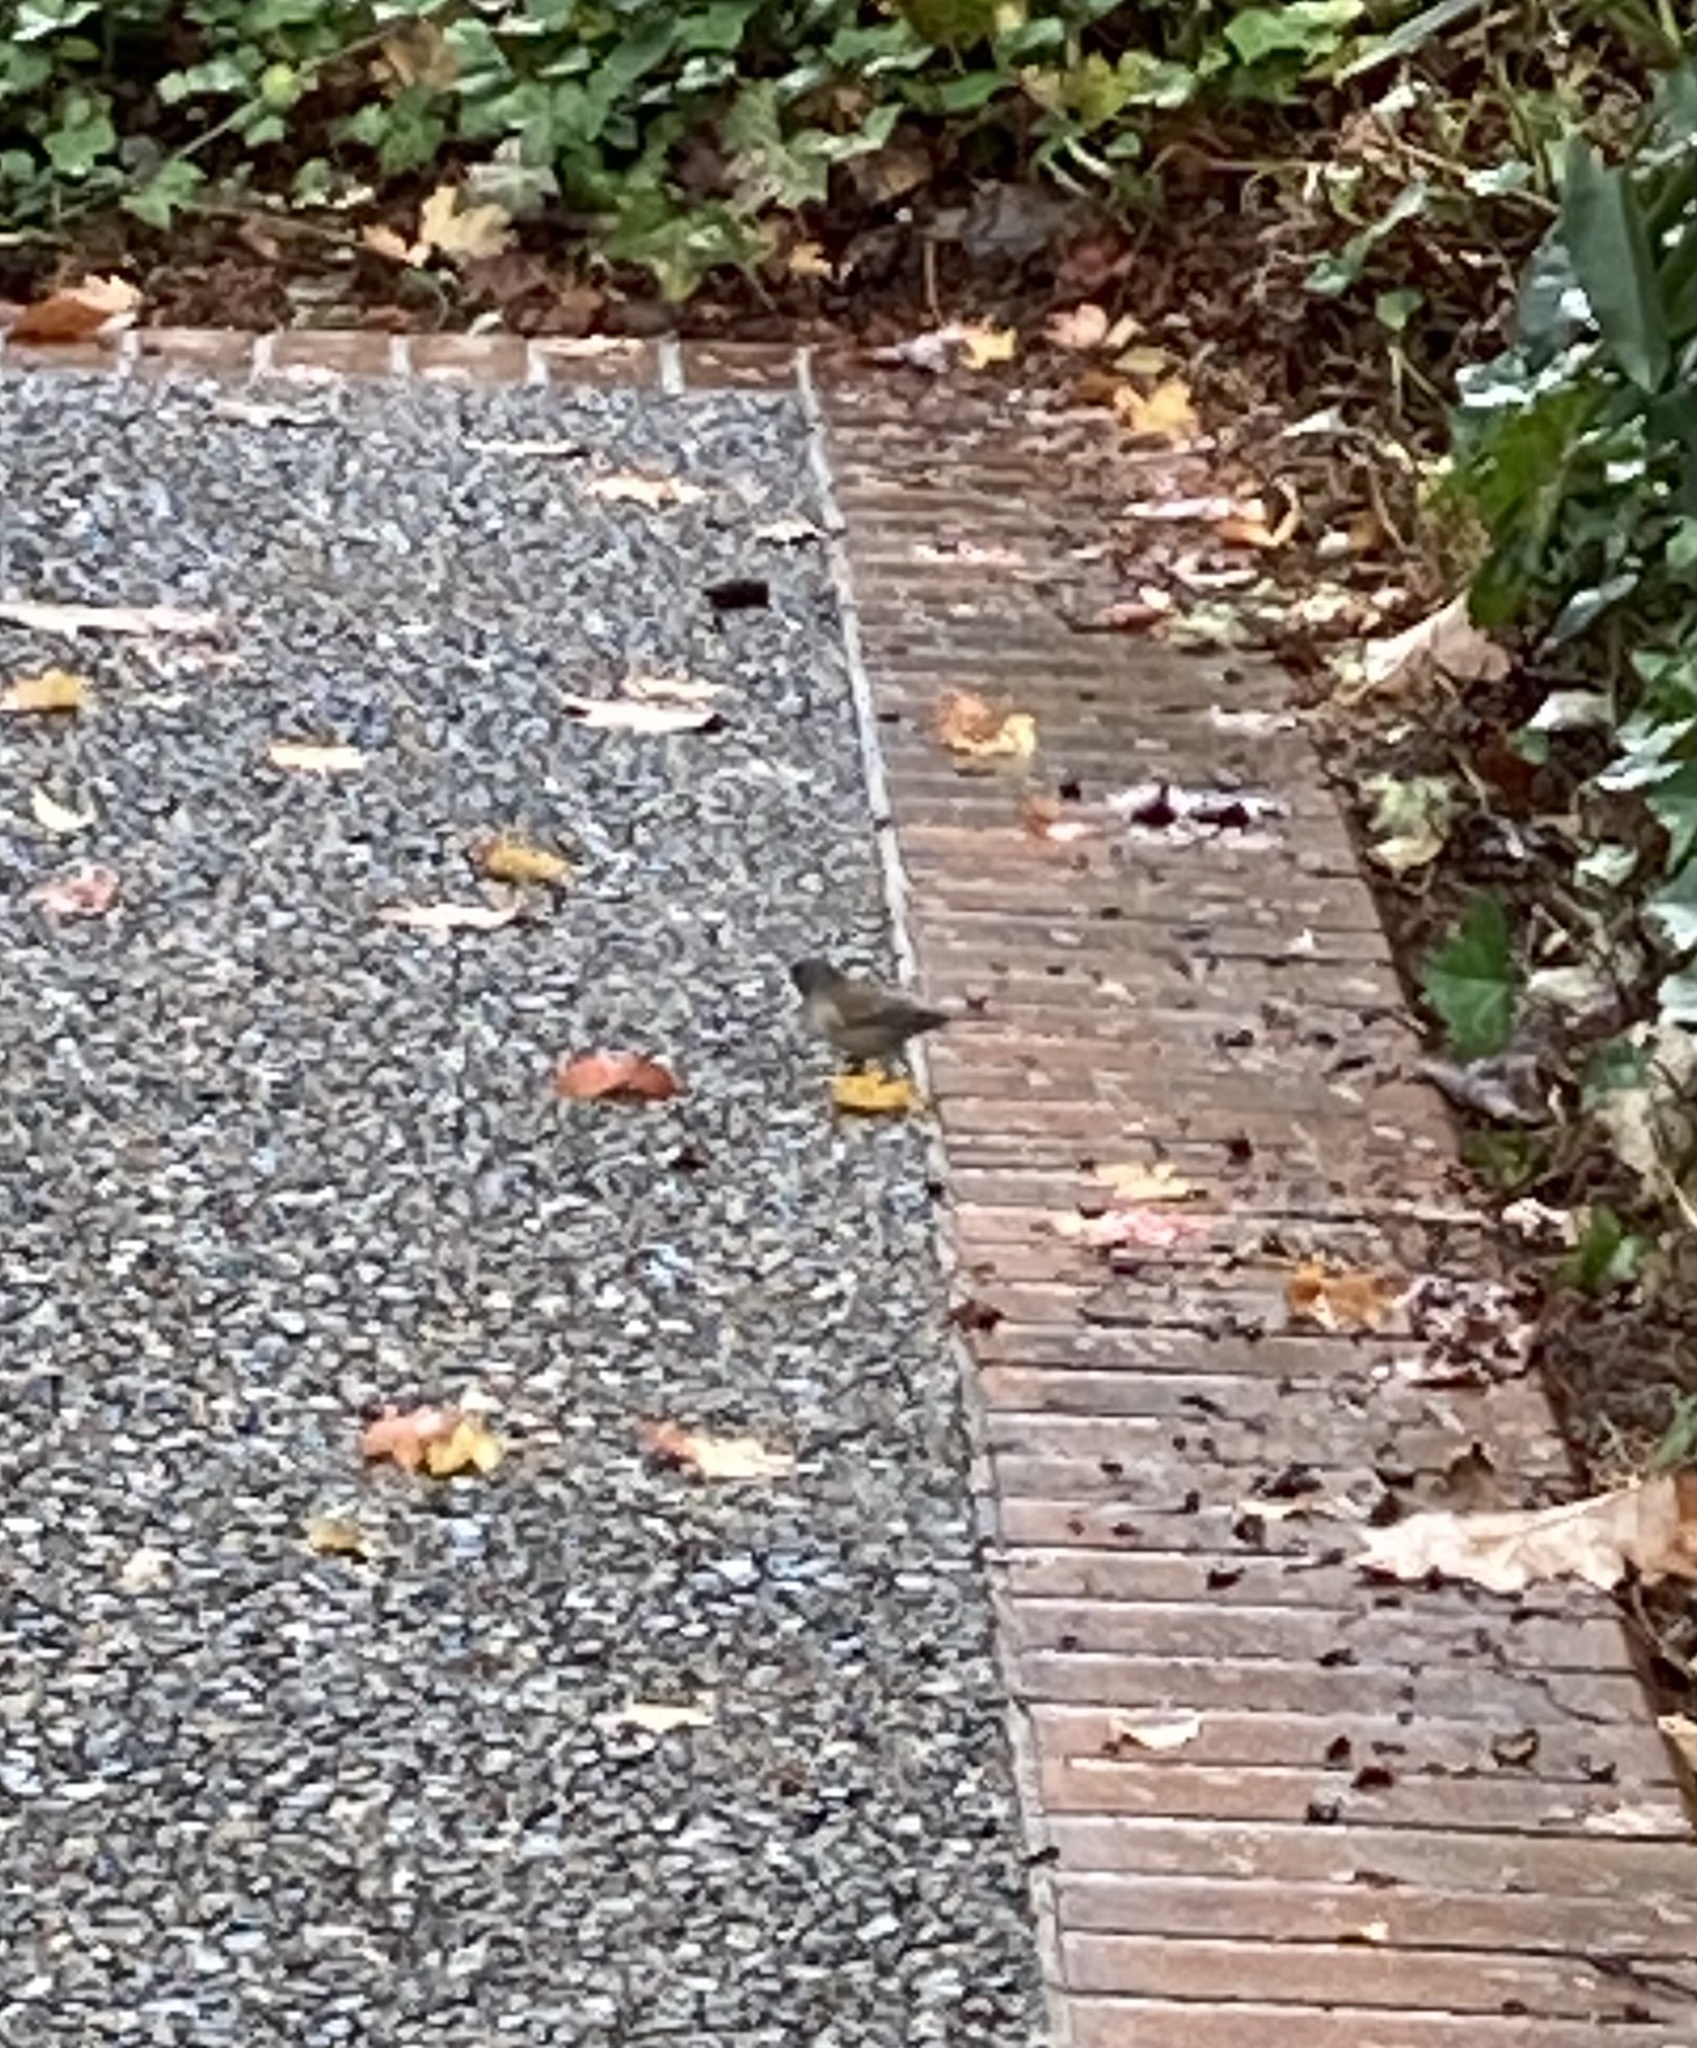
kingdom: Animalia
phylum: Chordata
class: Aves
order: Passeriformes
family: Passerellidae
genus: Junco
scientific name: Junco hyemalis
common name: Dark-eyed junco
